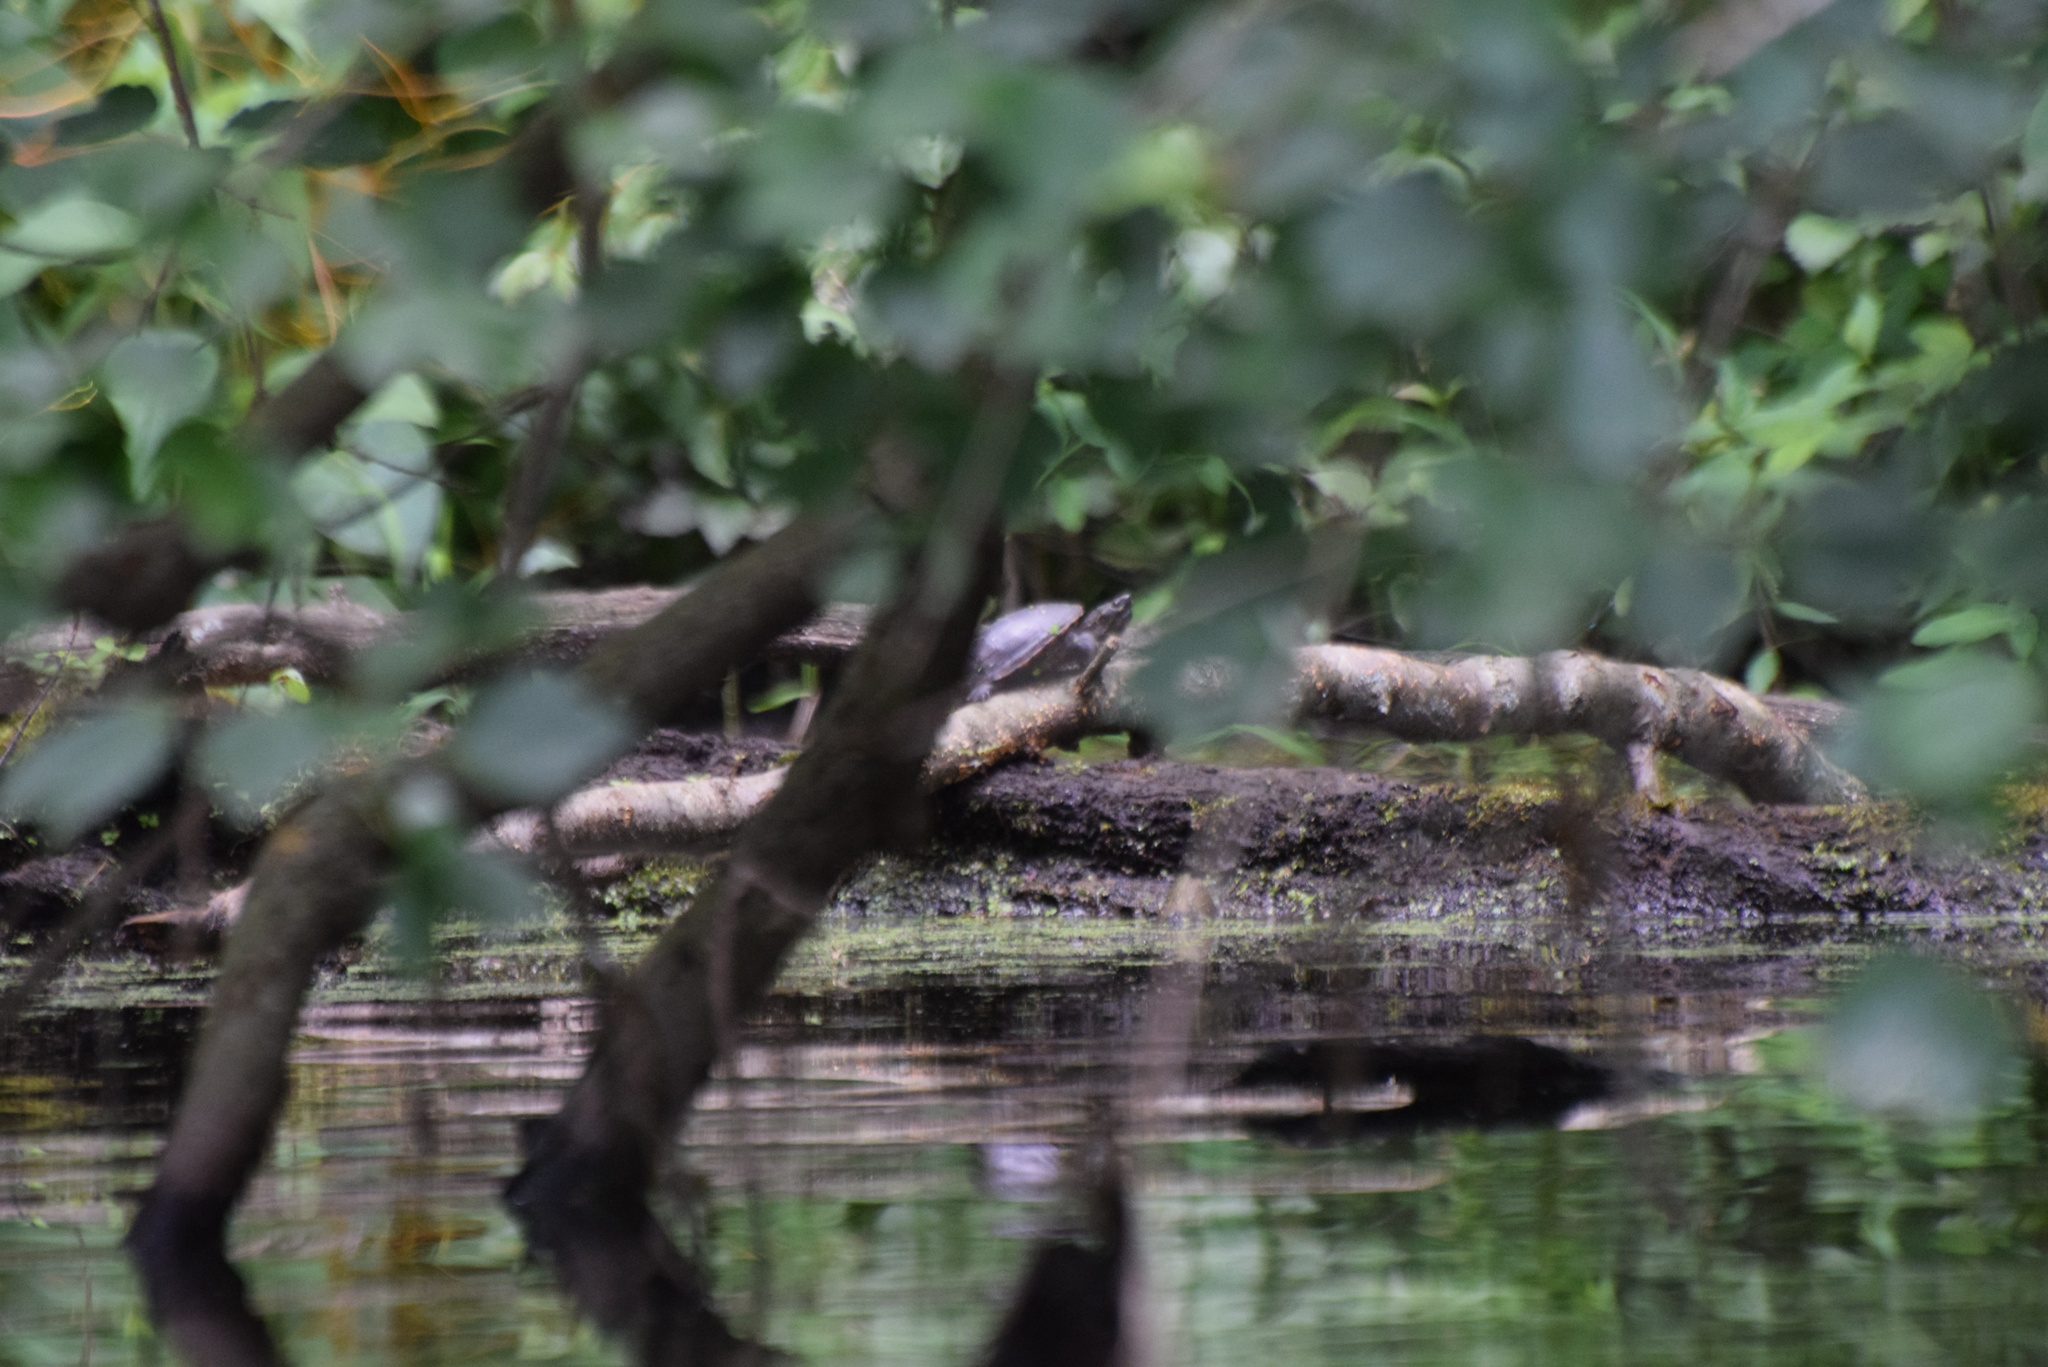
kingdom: Animalia
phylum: Chordata
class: Testudines
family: Kinosternidae
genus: Kinosternon
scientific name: Kinosternon baurii
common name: Striped mud turtle
